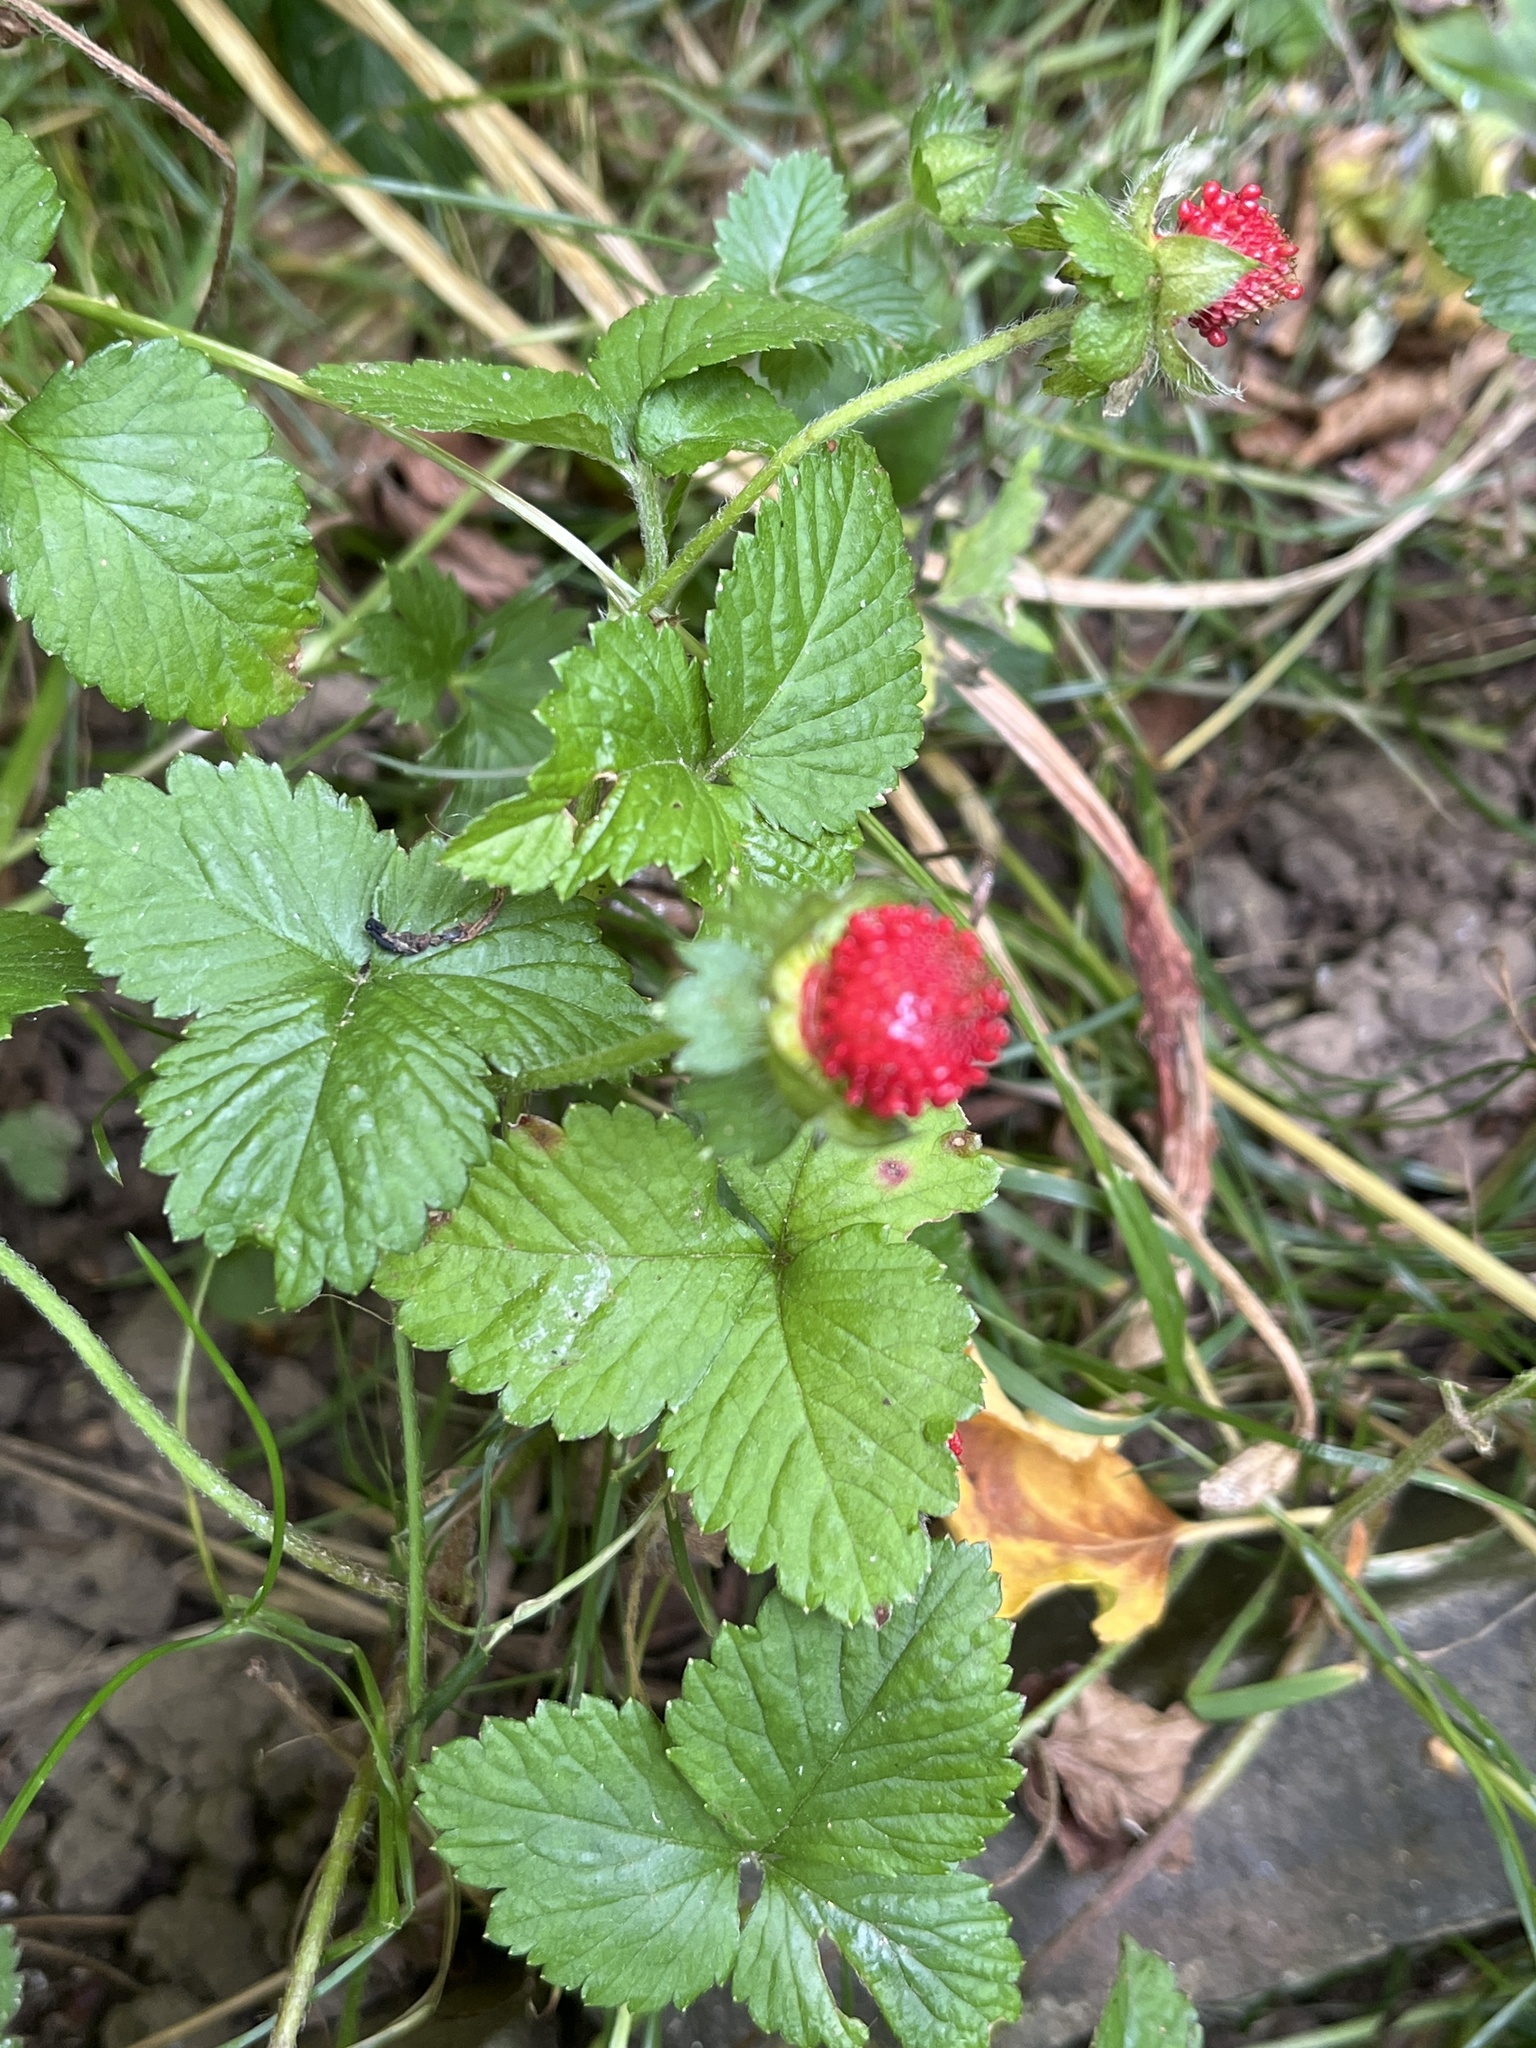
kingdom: Plantae
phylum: Tracheophyta
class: Magnoliopsida
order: Rosales
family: Rosaceae
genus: Potentilla
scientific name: Potentilla indica
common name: Yellow-flowered strawberry
